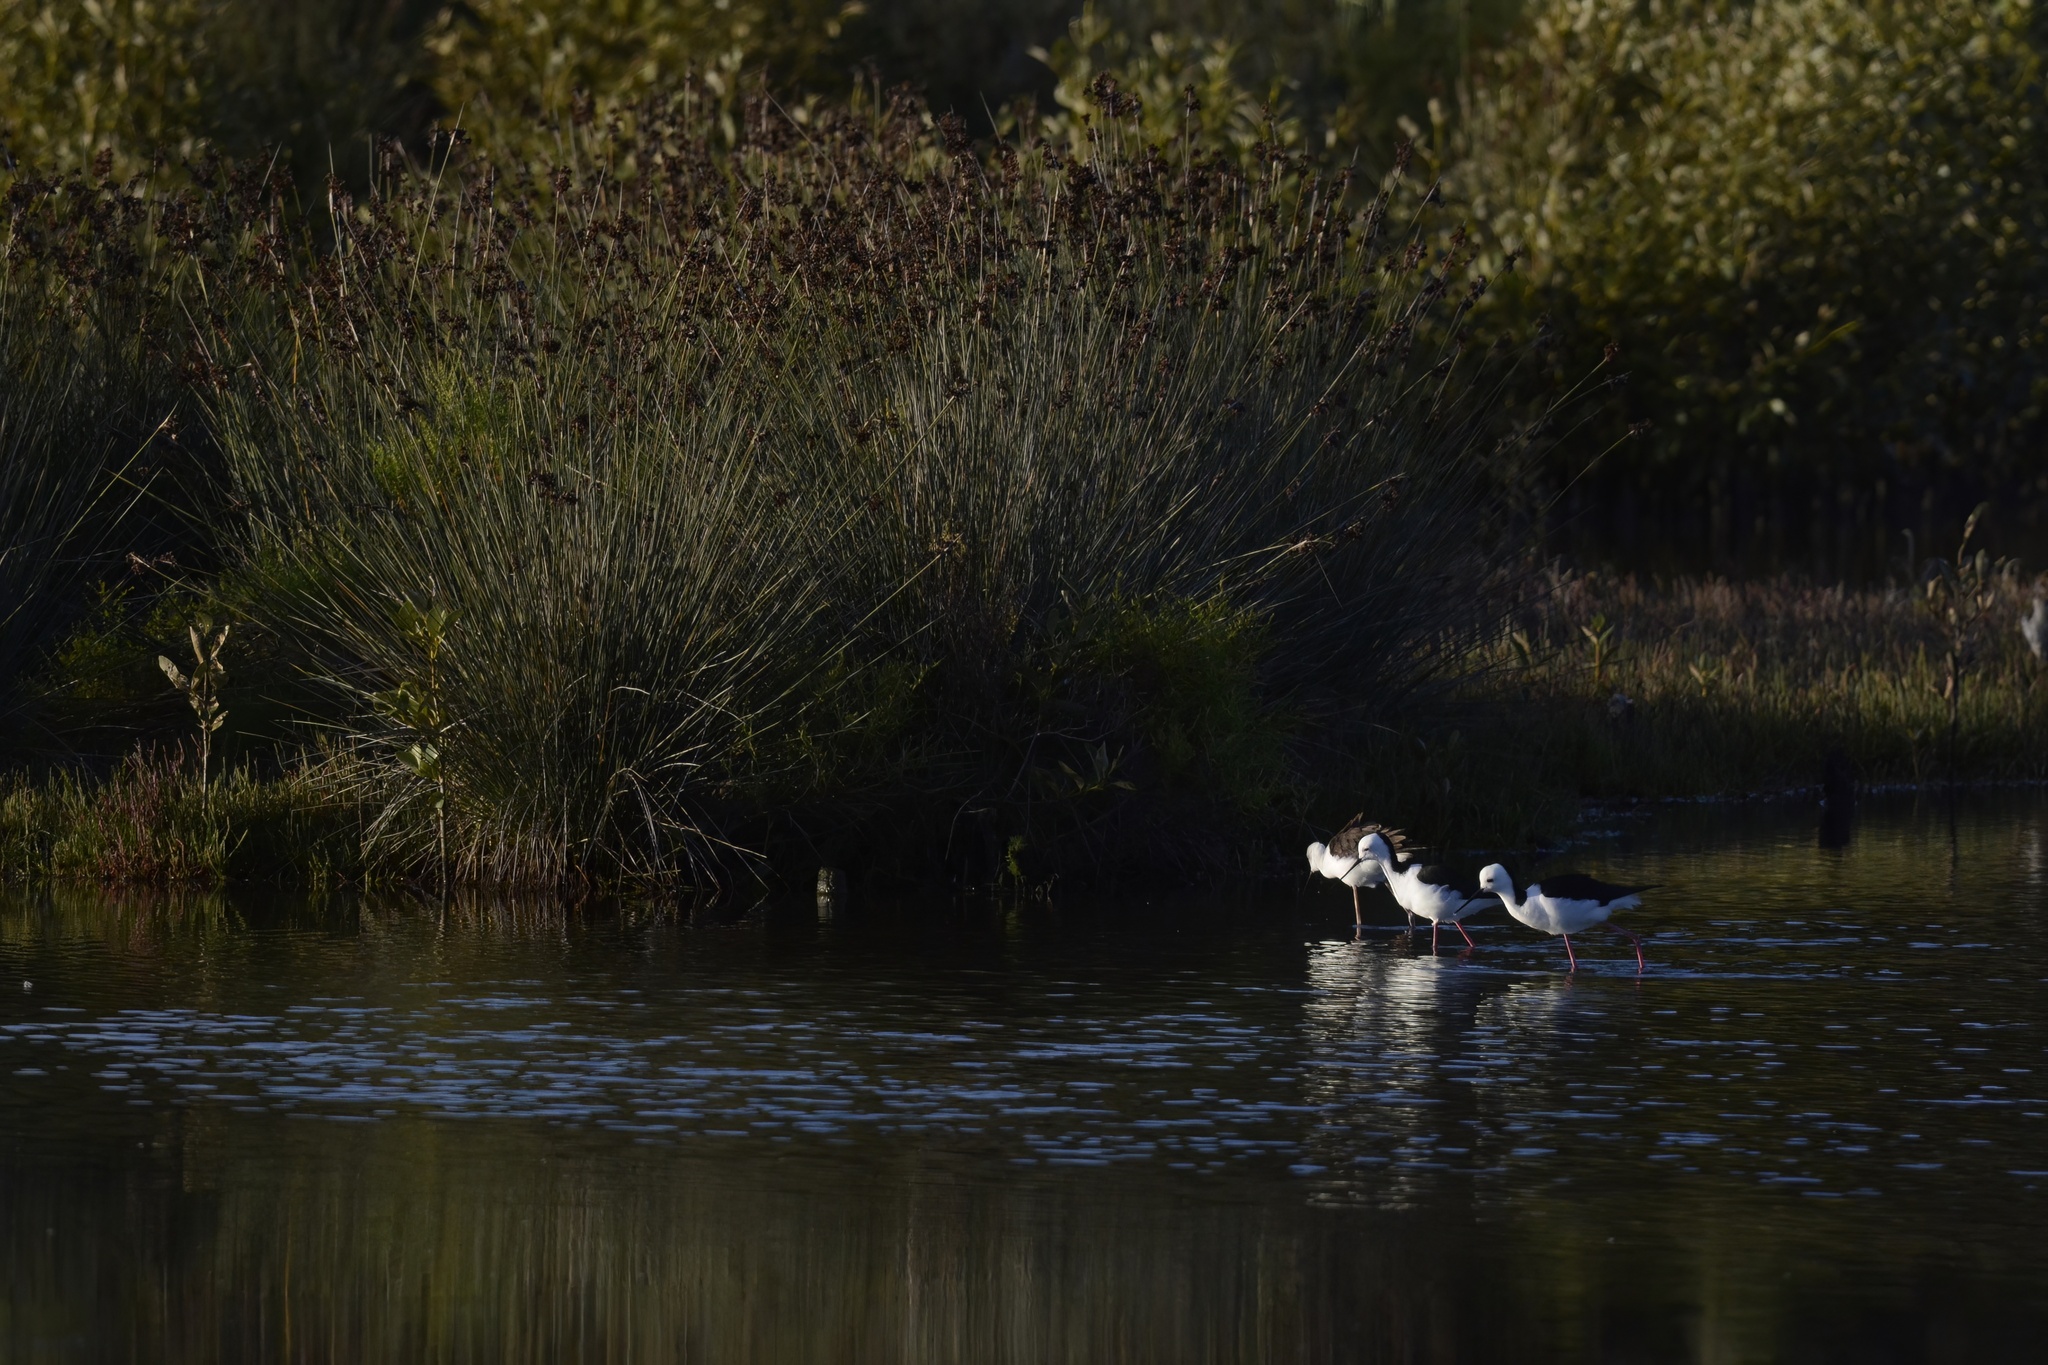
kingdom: Animalia
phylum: Chordata
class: Aves
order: Charadriiformes
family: Recurvirostridae
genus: Himantopus
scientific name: Himantopus leucocephalus
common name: White-headed stilt
